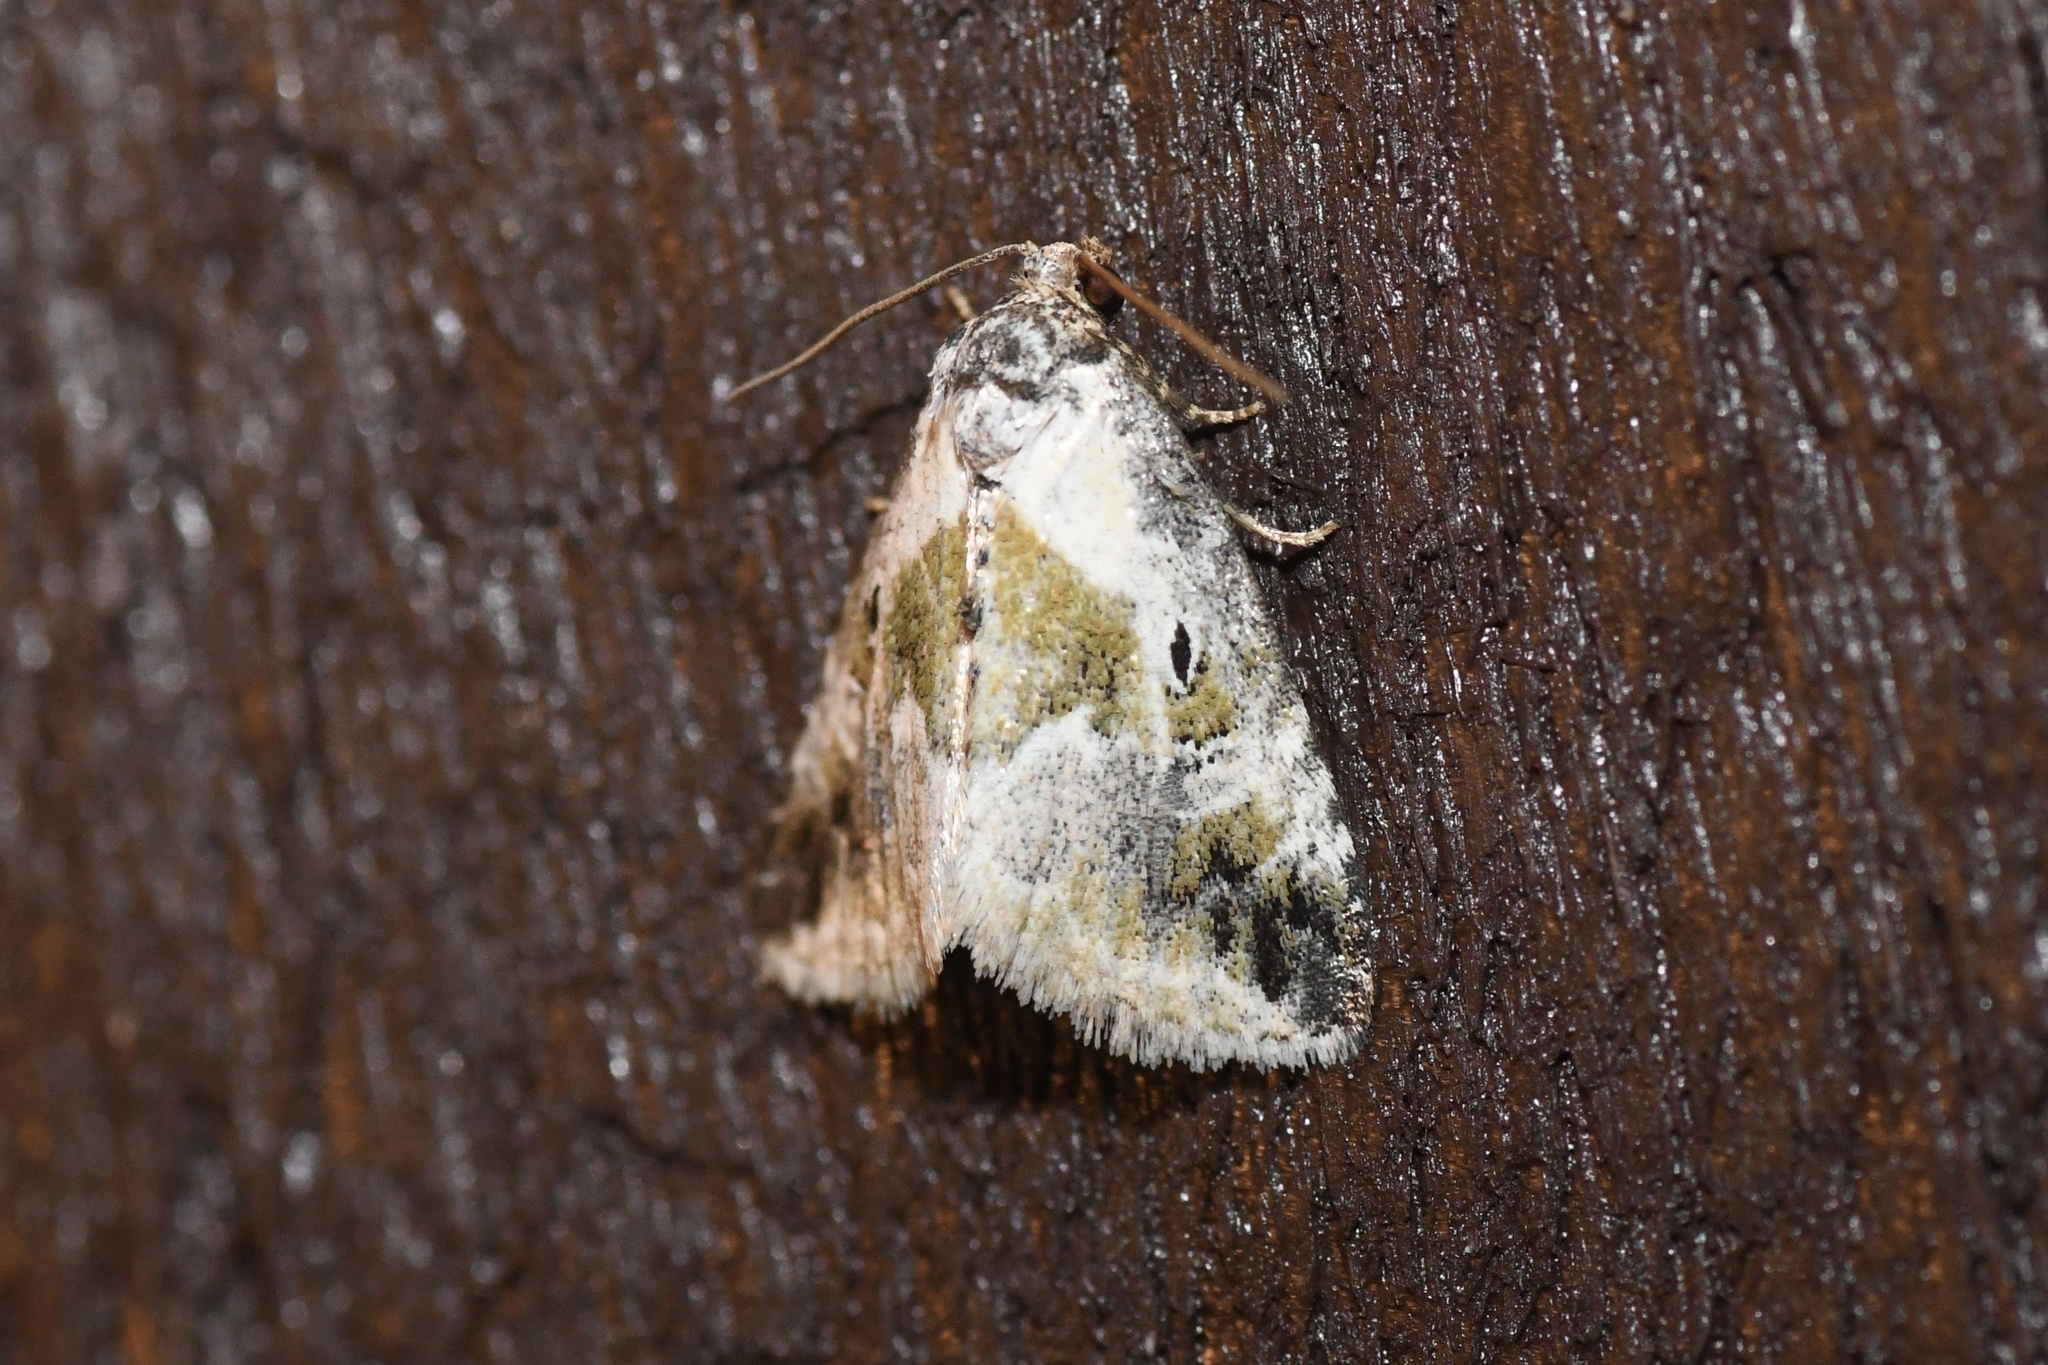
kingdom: Animalia
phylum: Arthropoda
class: Insecta
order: Lepidoptera
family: Noctuidae
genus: Maliattha
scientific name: Maliattha synochitis
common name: Black-dotted glyph
